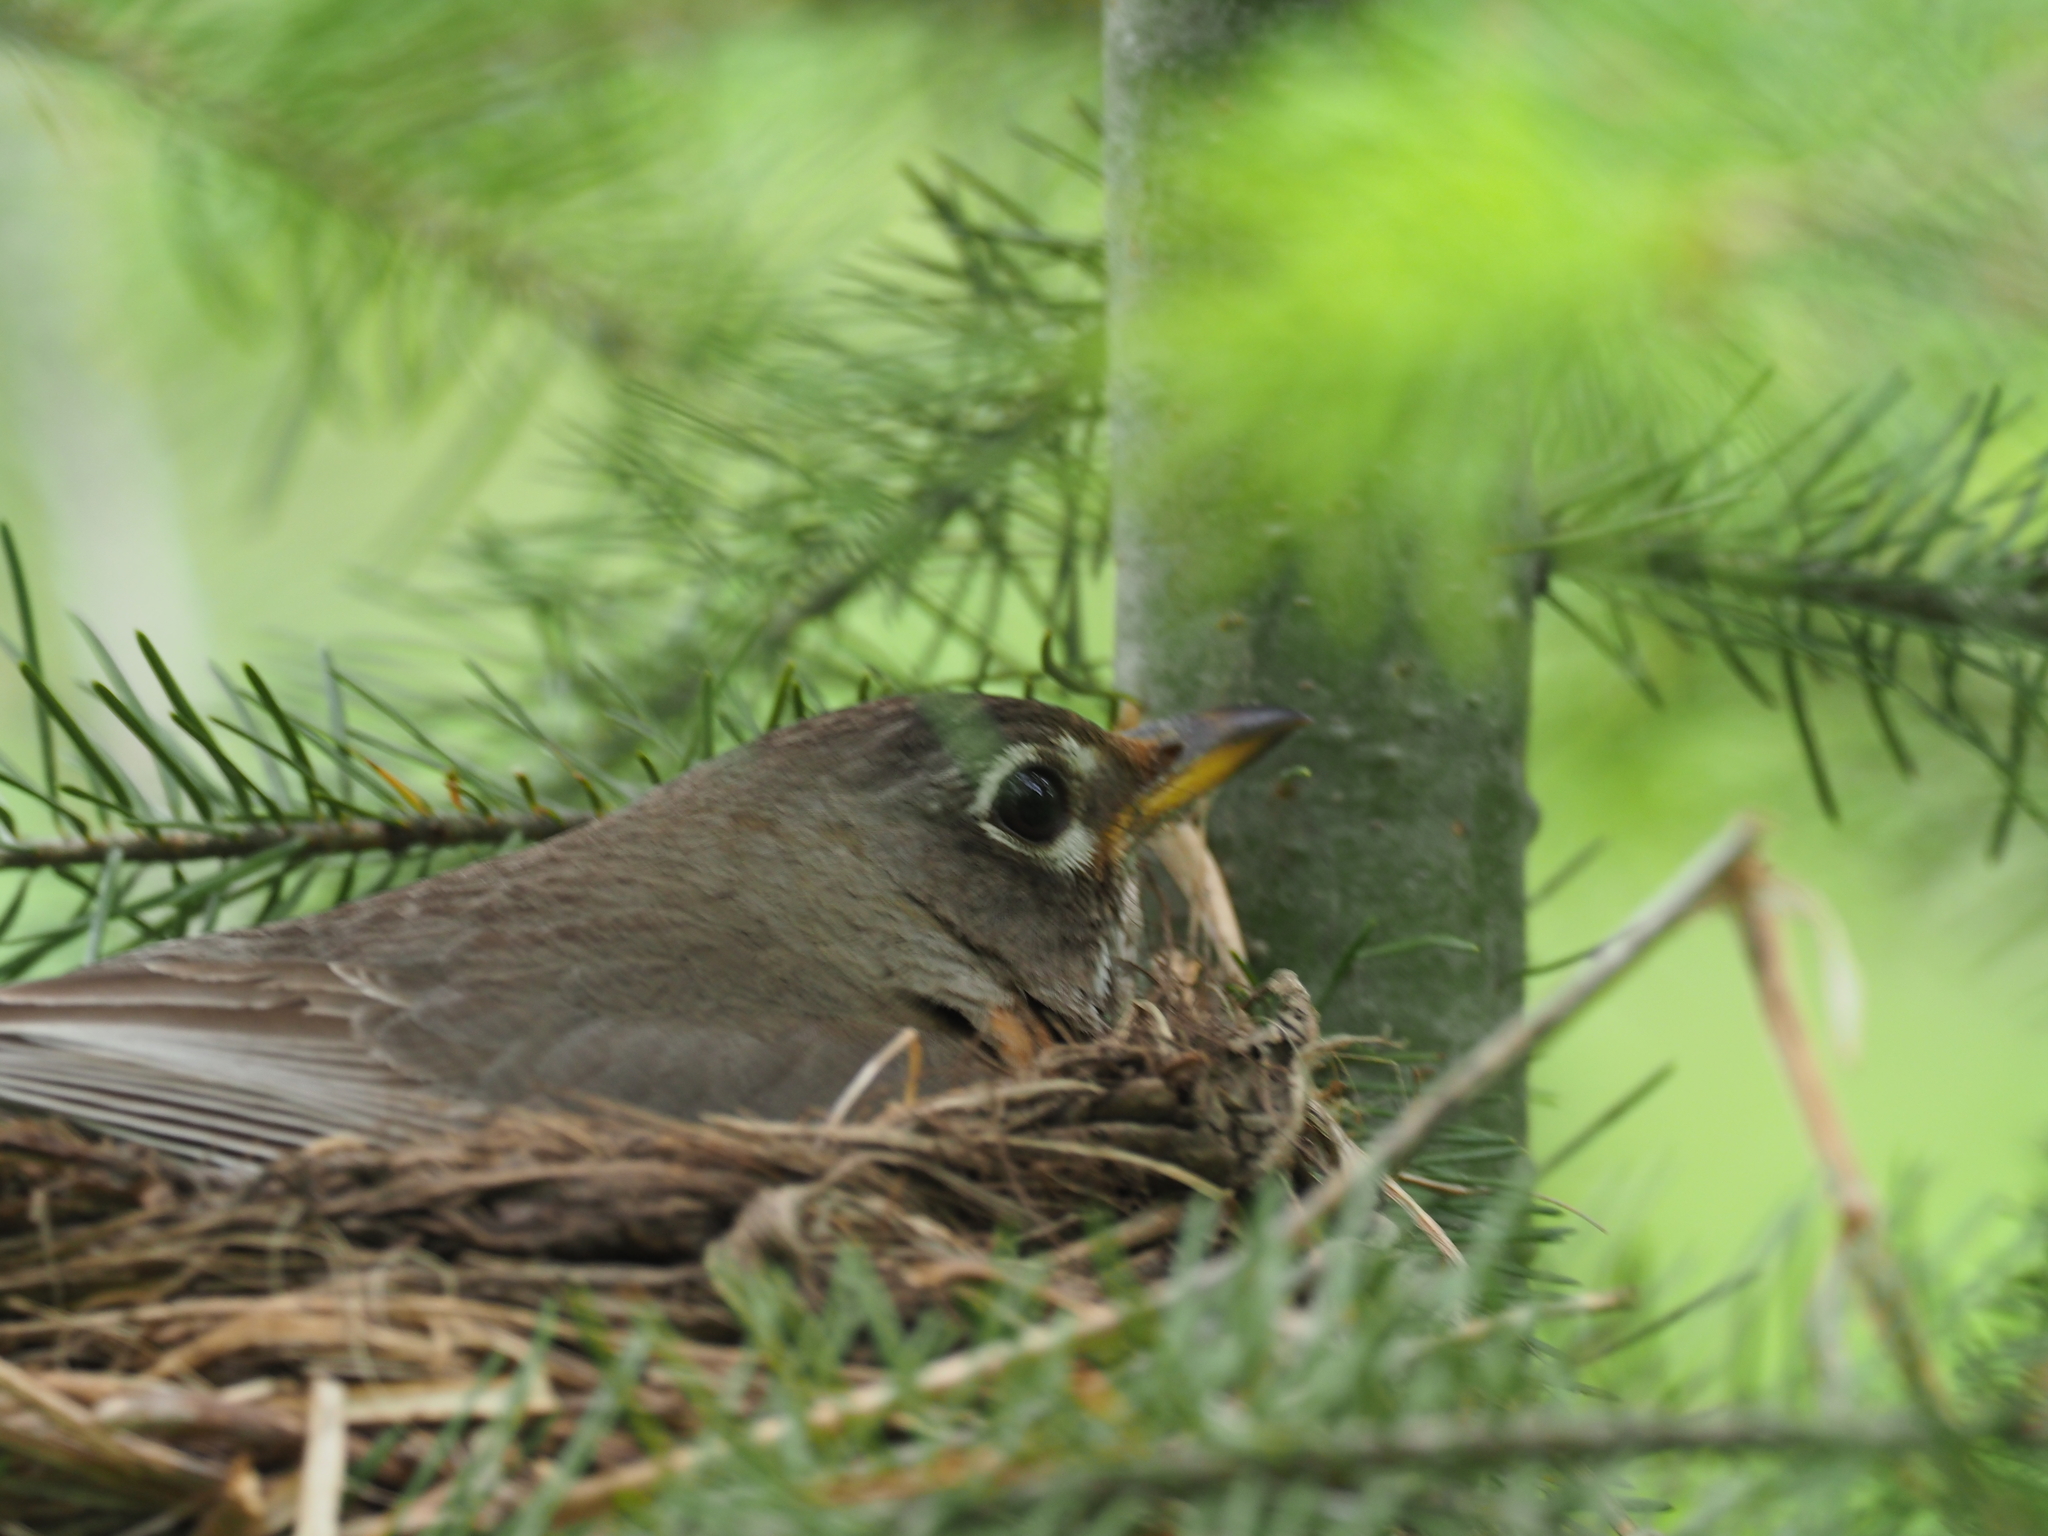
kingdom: Animalia
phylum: Chordata
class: Aves
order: Passeriformes
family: Turdidae
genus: Turdus
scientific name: Turdus migratorius
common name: American robin
